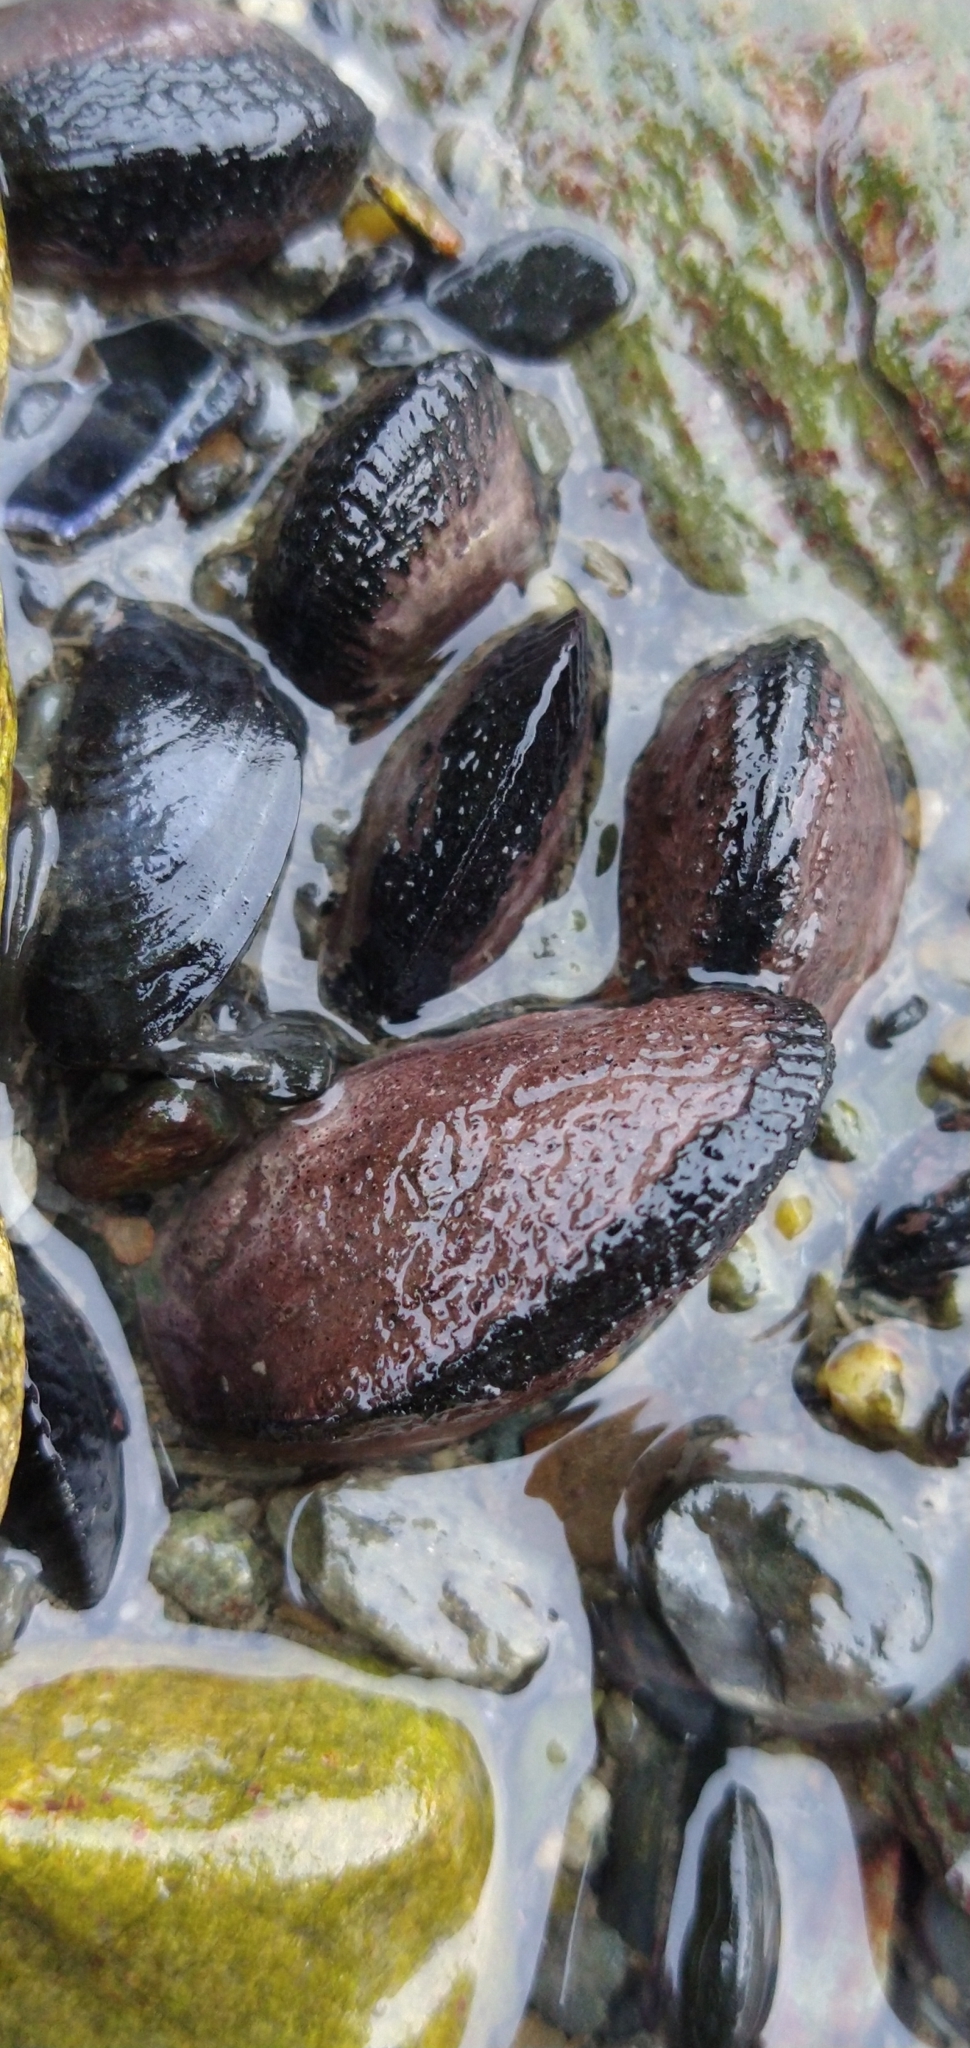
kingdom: Animalia
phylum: Mollusca
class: Bivalvia
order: Mytilida
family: Mytilidae
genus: Perumytilus
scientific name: Perumytilus purpuratus
